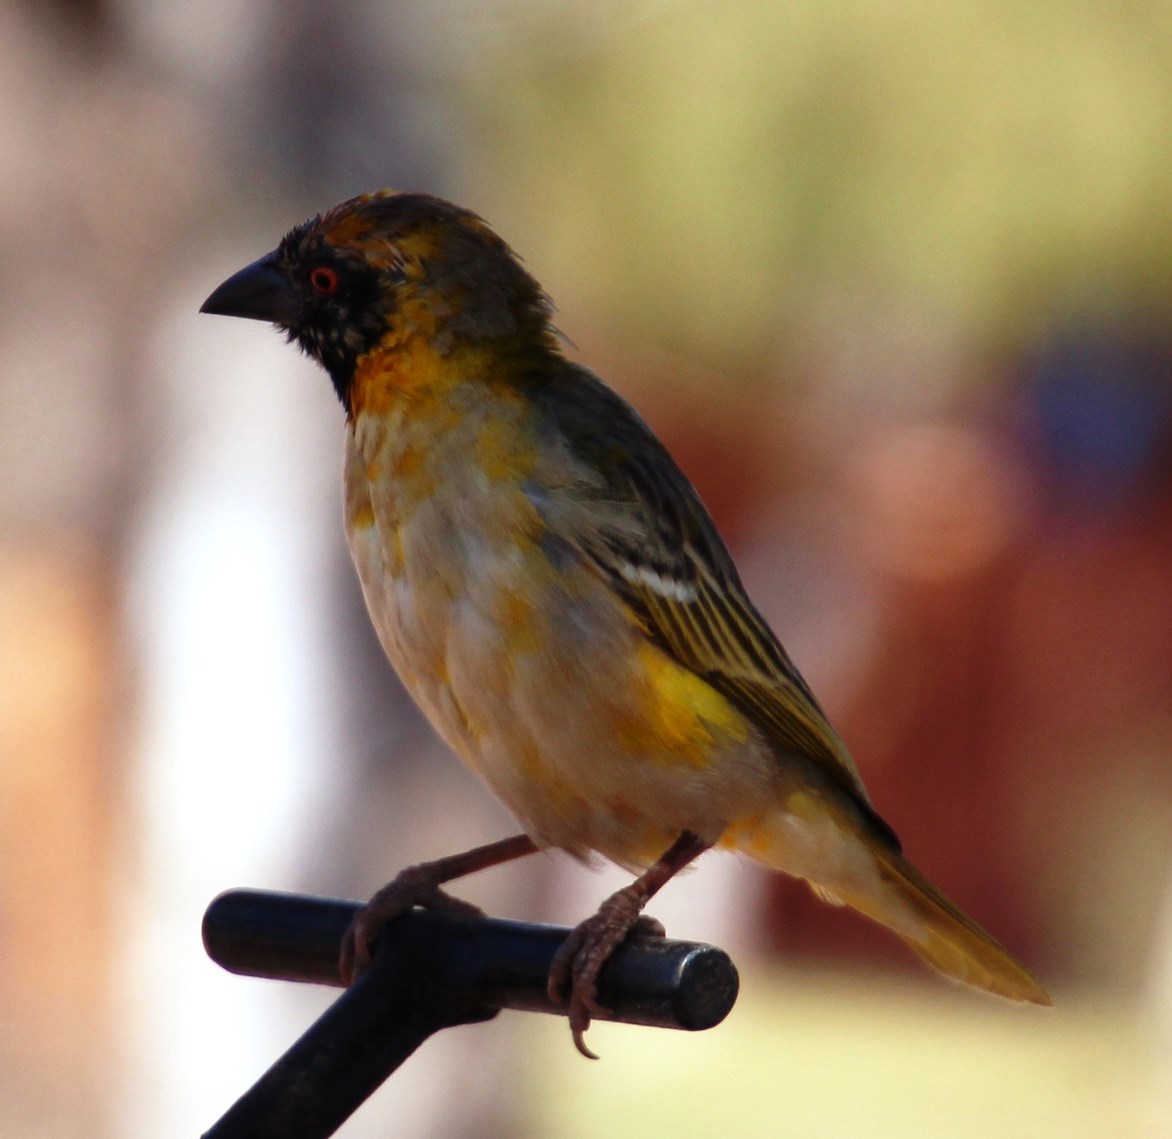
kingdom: Animalia
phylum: Chordata
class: Aves
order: Passeriformes
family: Ploceidae
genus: Ploceus
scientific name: Ploceus velatus
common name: Southern masked weaver
